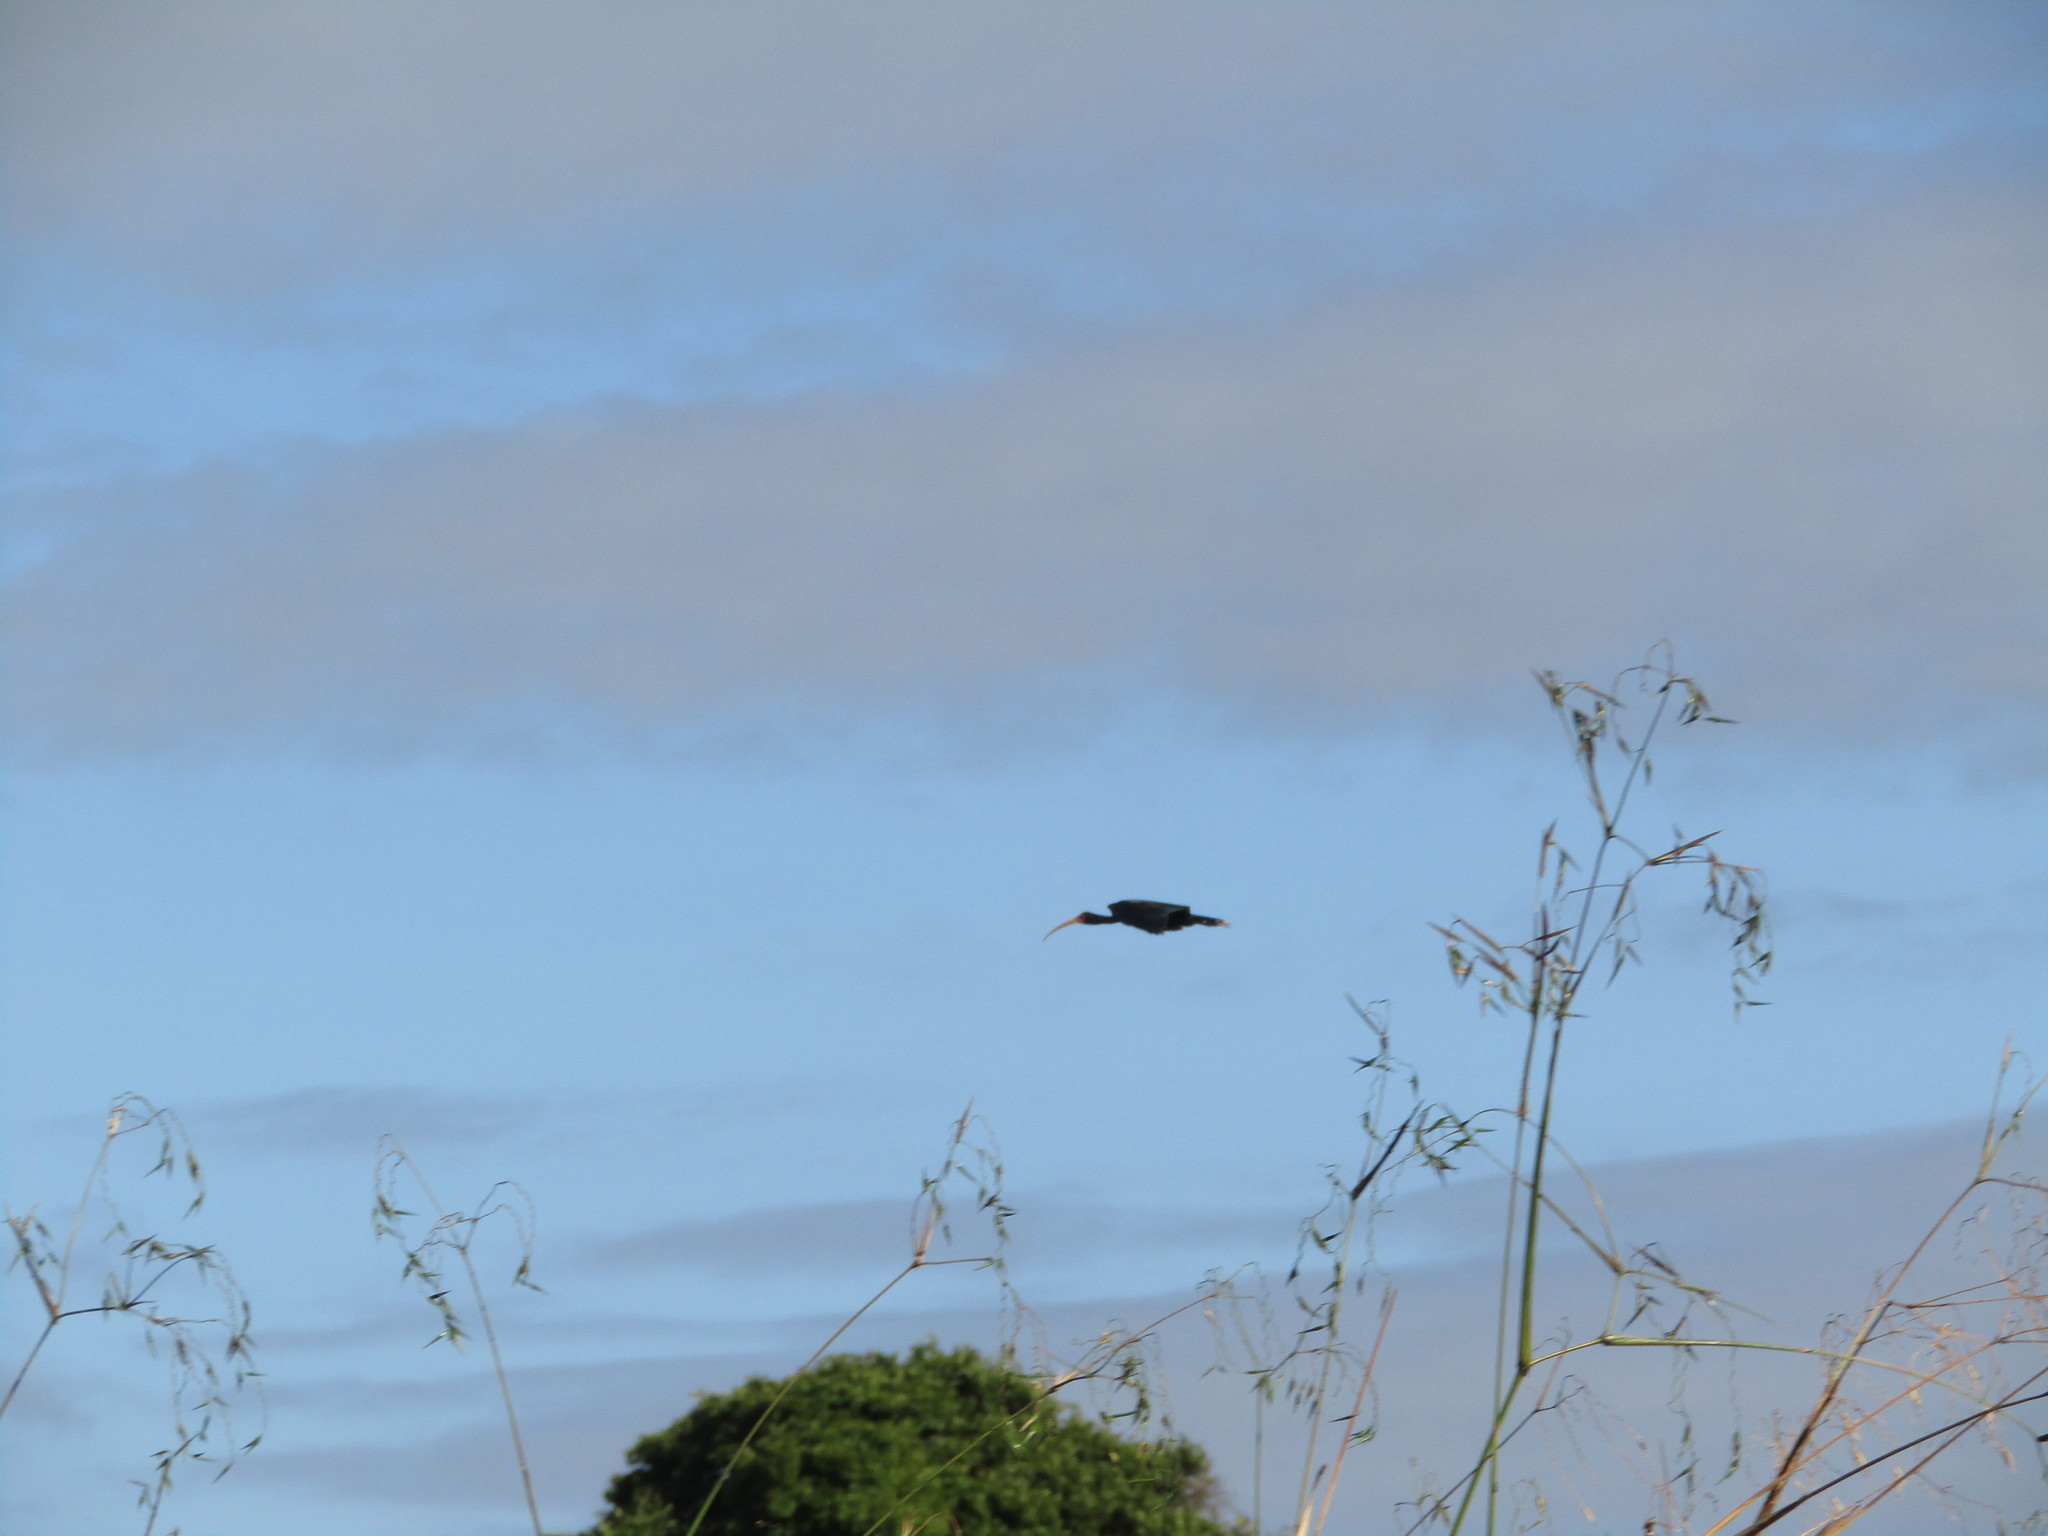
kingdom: Animalia
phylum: Chordata
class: Aves
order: Pelecaniformes
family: Threskiornithidae
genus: Phimosus
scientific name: Phimosus infuscatus
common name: Bare-faced ibis
